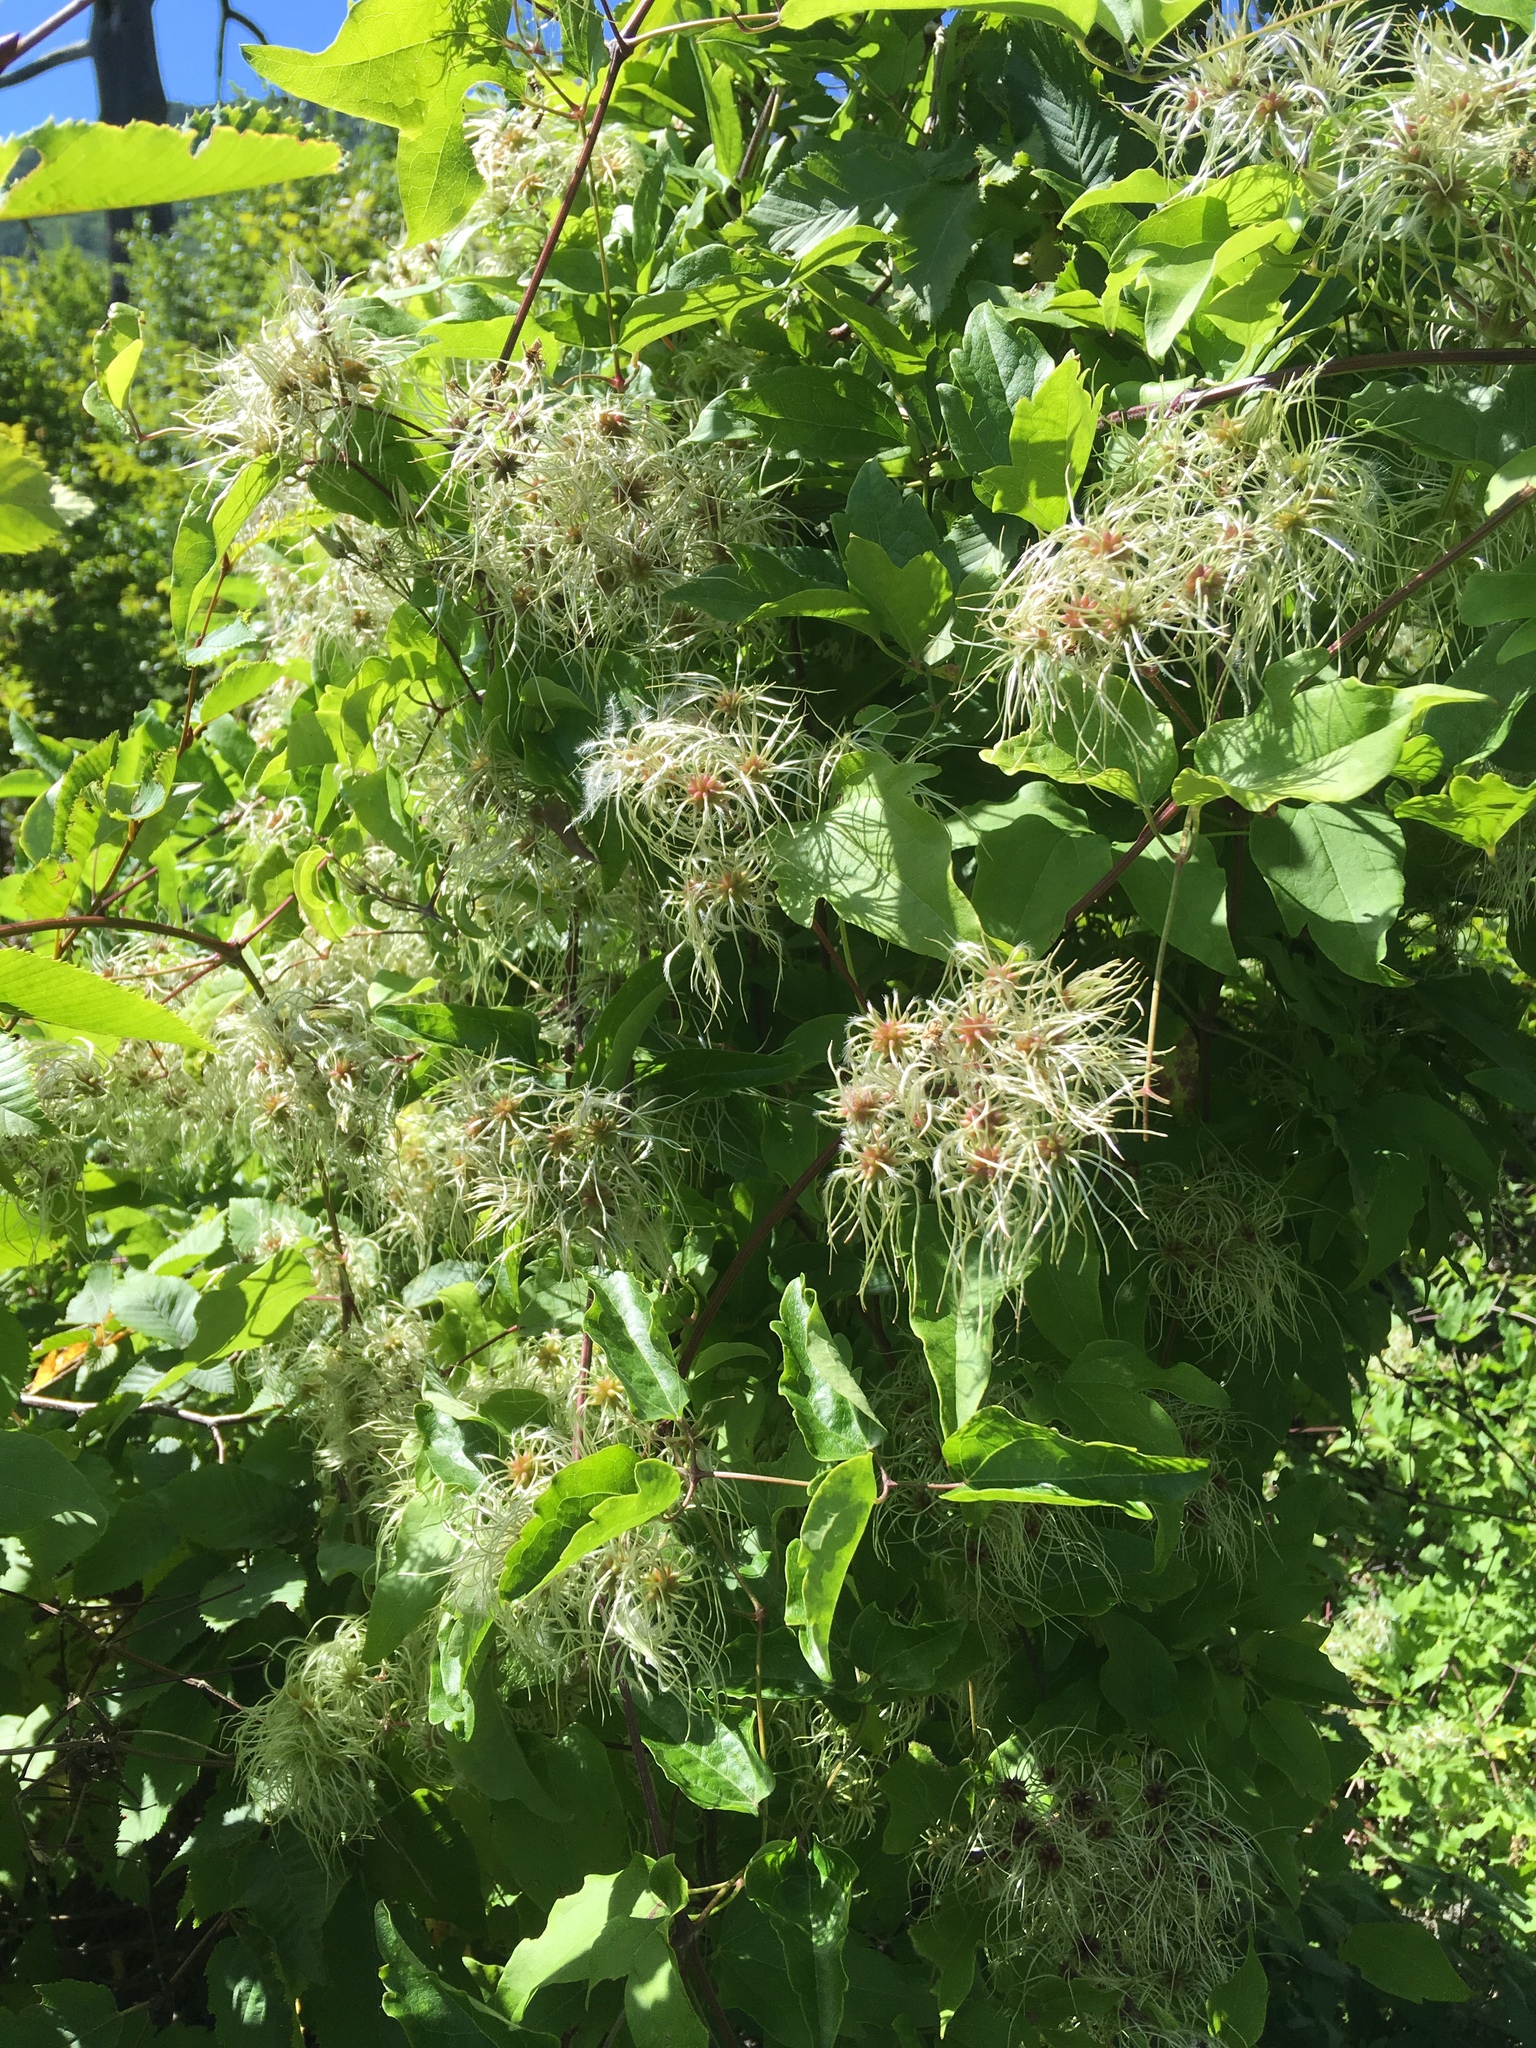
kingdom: Plantae
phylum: Tracheophyta
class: Magnoliopsida
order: Ranunculales
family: Ranunculaceae
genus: Clematis
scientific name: Clematis vitalba
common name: Evergreen clematis
